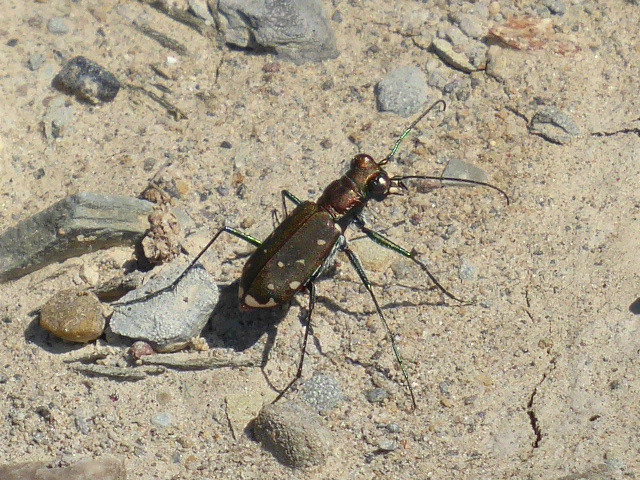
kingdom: Animalia
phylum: Arthropoda
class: Insecta
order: Coleoptera
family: Carabidae
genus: Cicindela
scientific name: Cicindela rufiventris
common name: Eastern red-bellied tiger beetle
